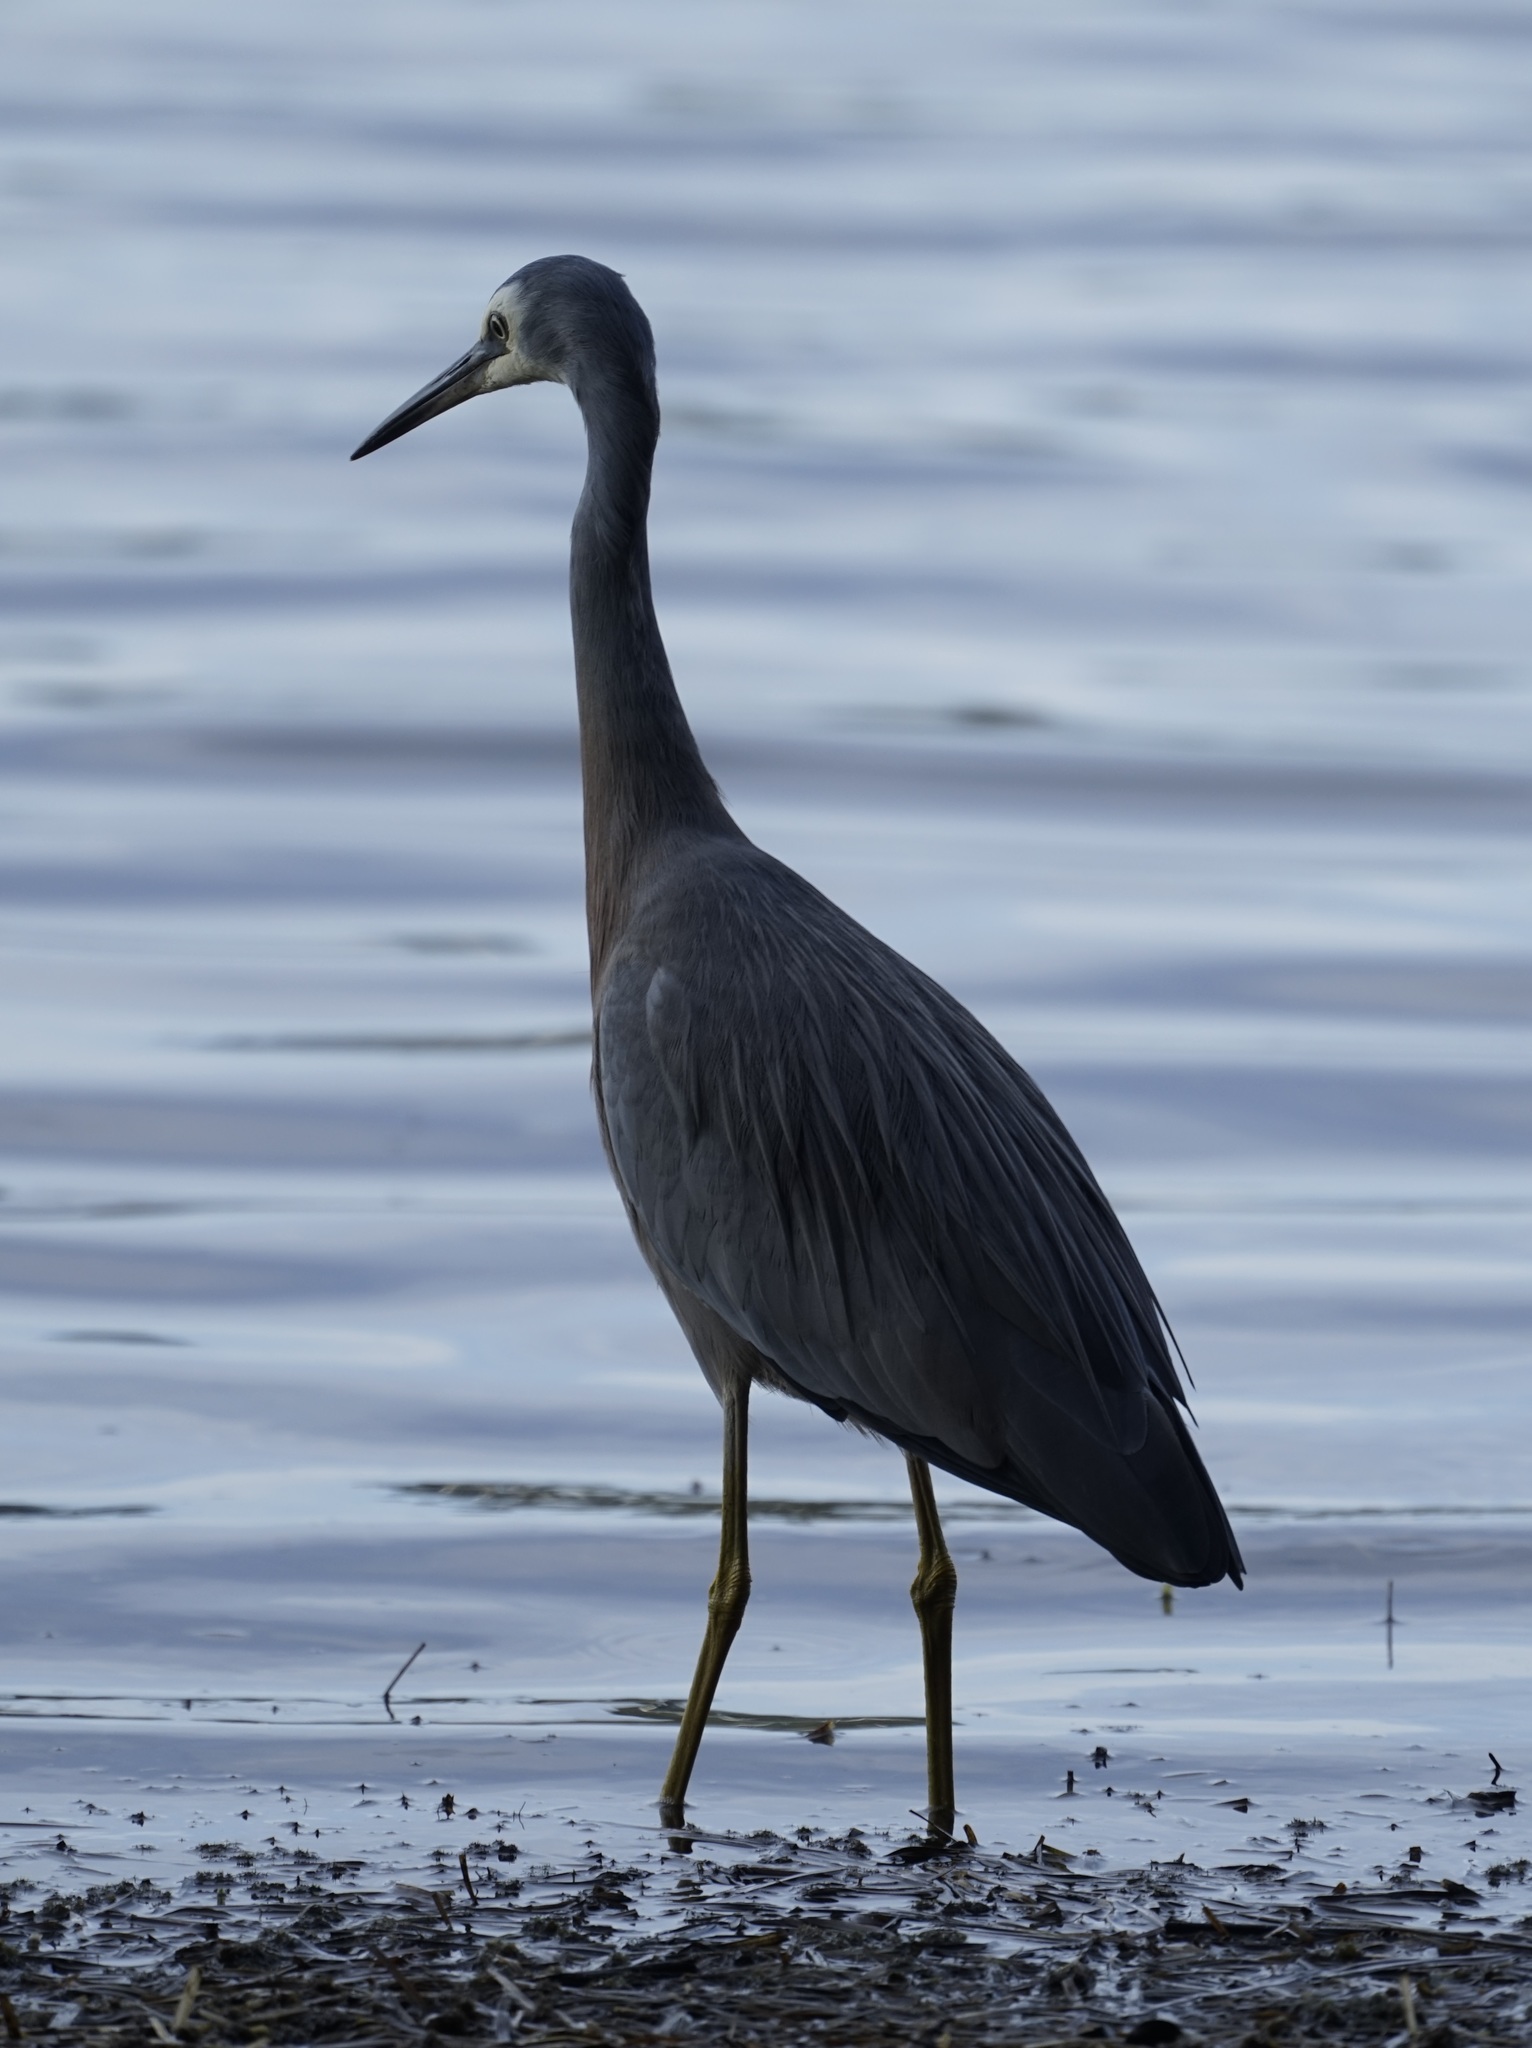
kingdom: Animalia
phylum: Chordata
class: Aves
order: Pelecaniformes
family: Ardeidae
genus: Egretta
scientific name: Egretta novaehollandiae
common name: White-faced heron
